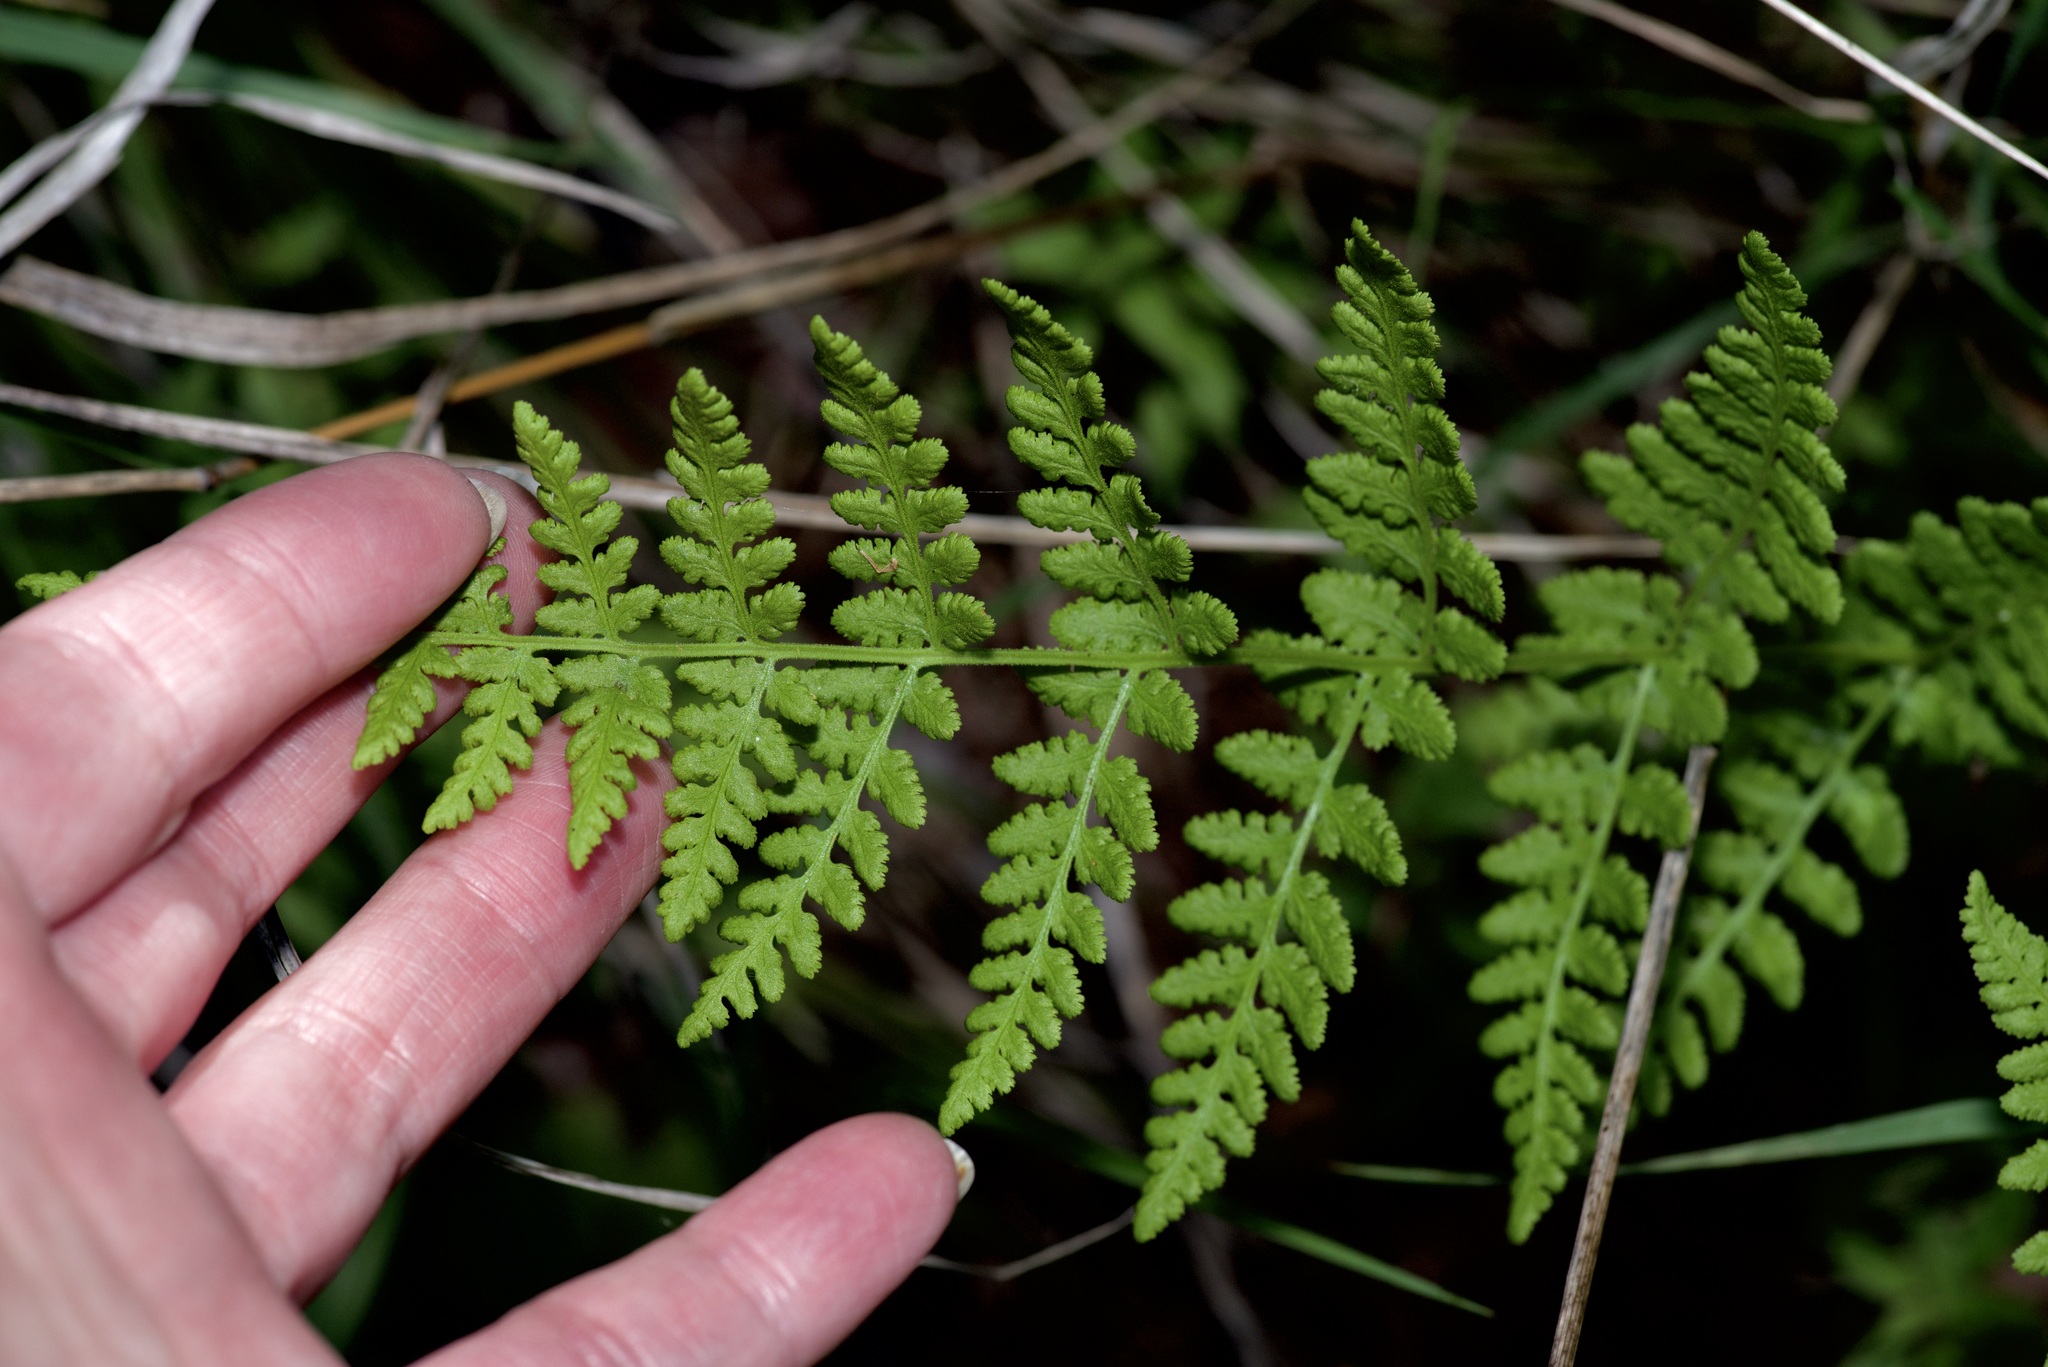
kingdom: Plantae
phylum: Tracheophyta
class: Polypodiopsida
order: Polypodiales
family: Woodsiaceae
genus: Physematium
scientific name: Physematium obtusum
